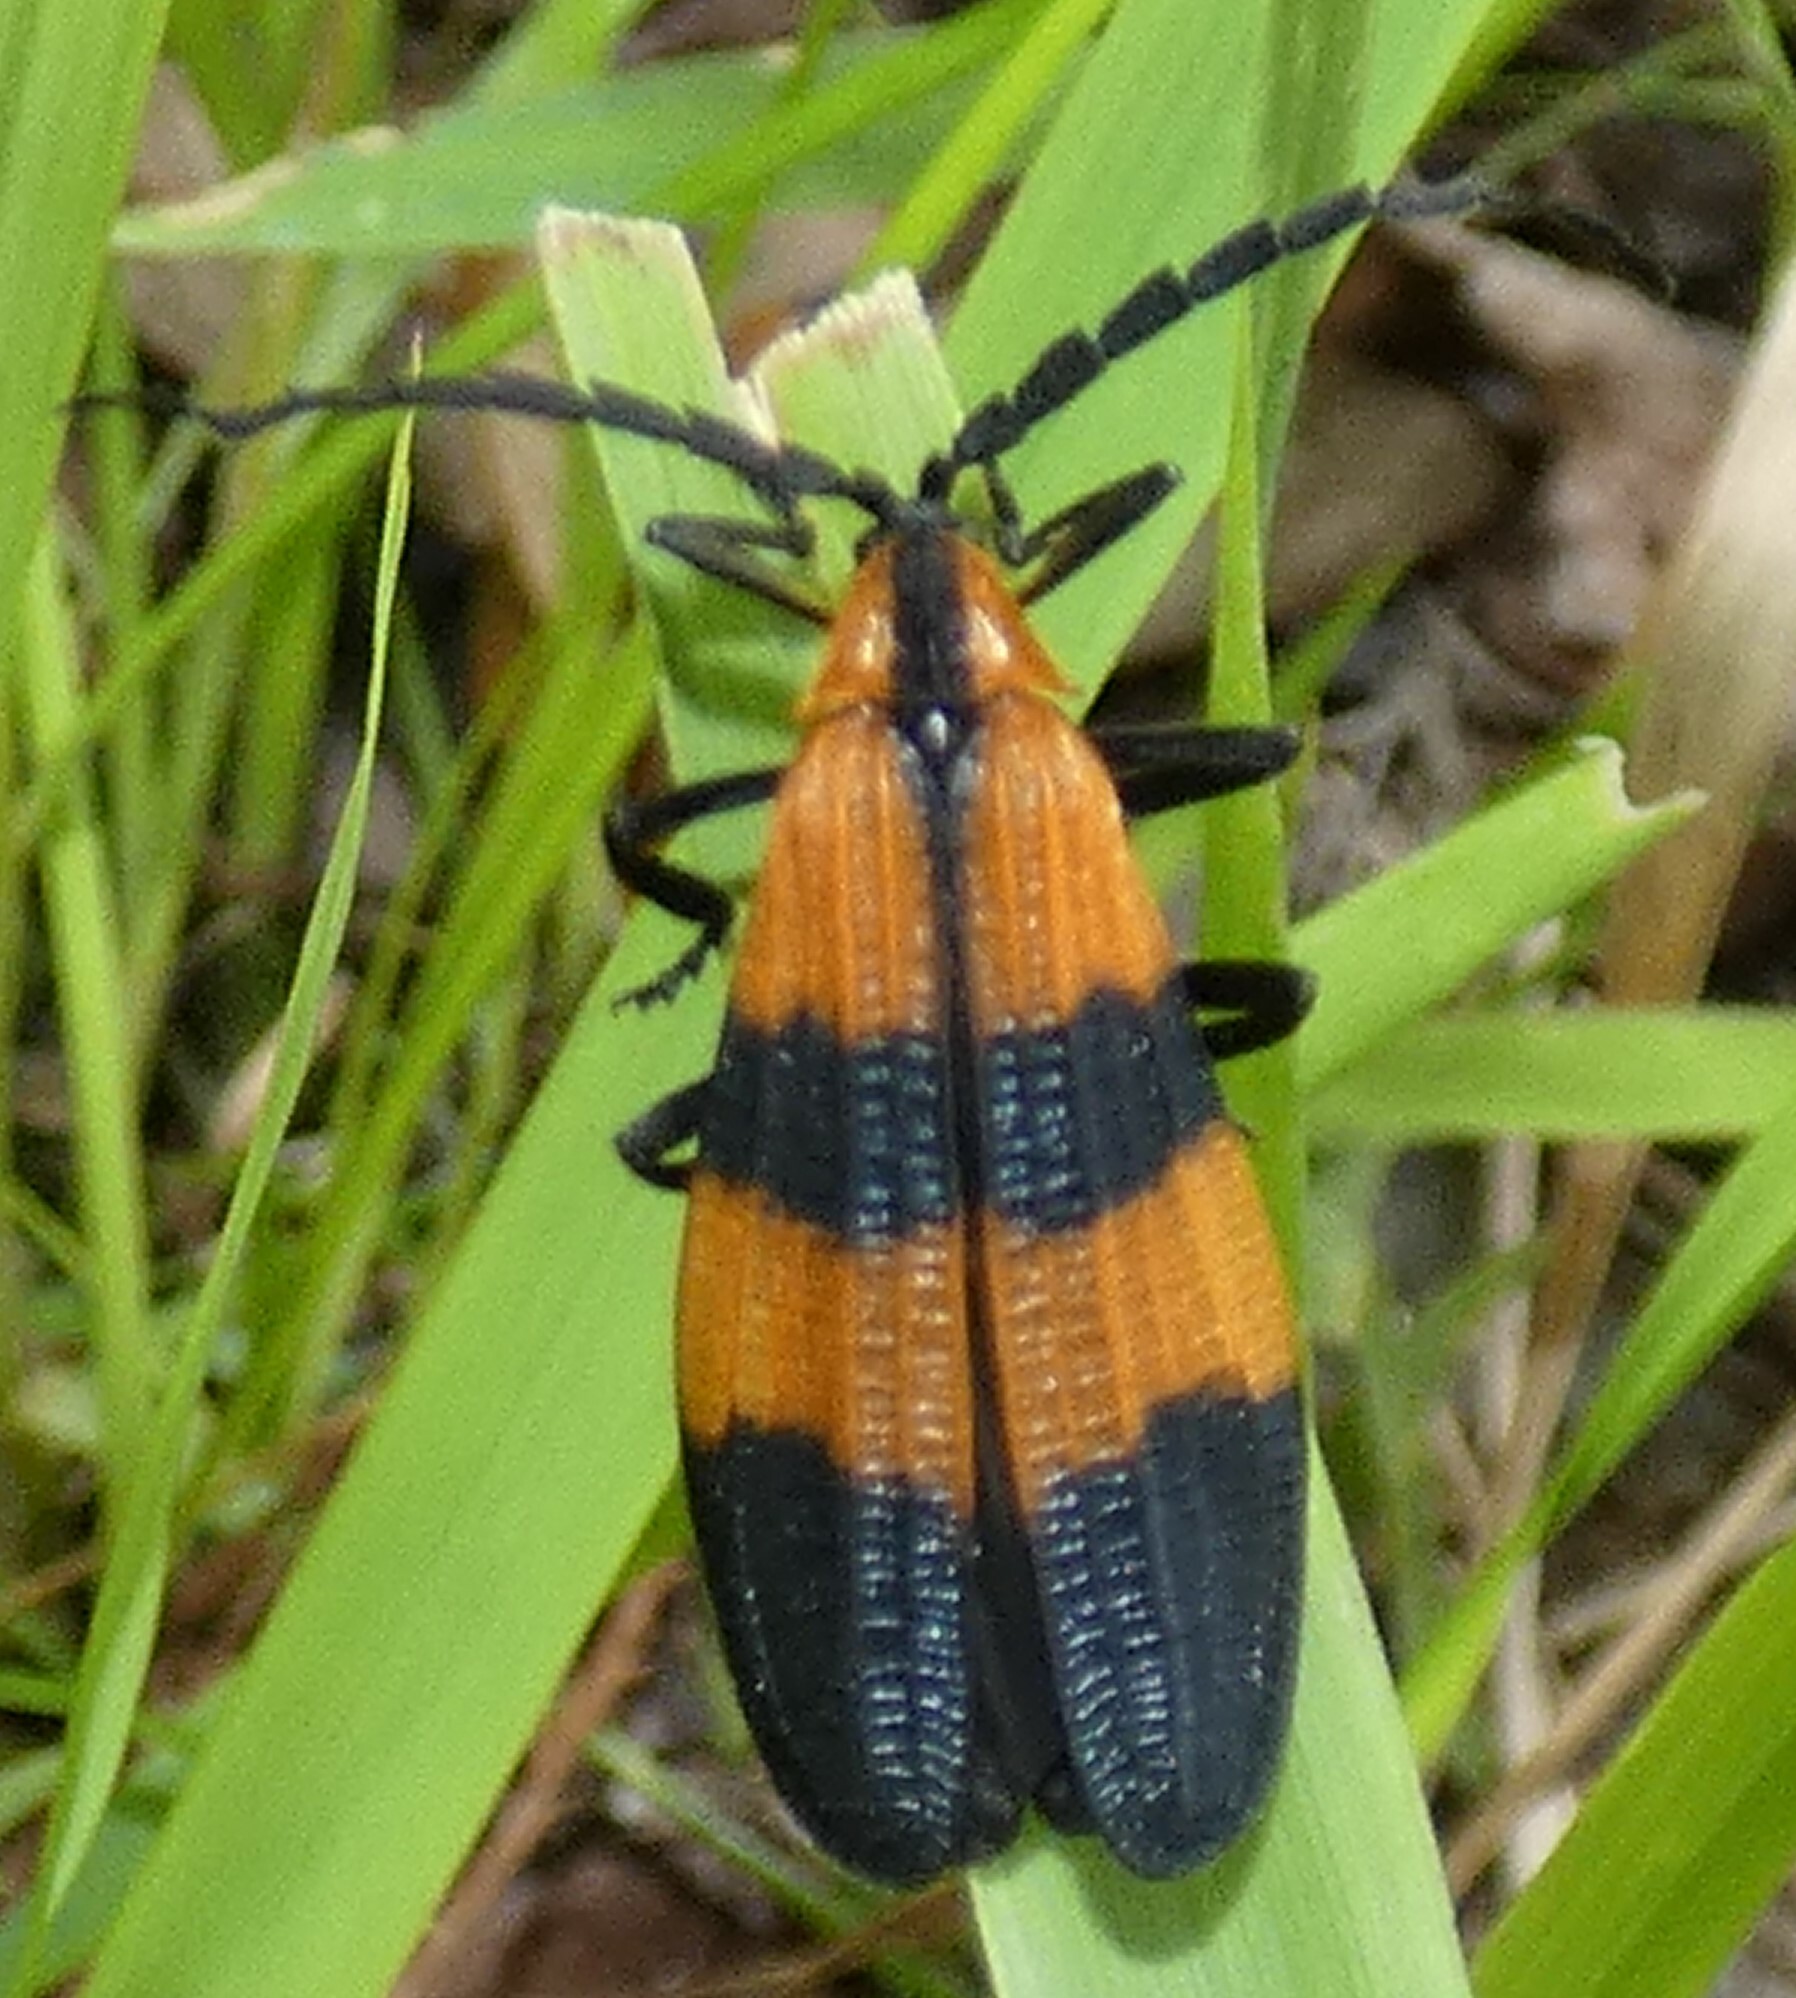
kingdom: Animalia
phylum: Arthropoda
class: Insecta
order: Coleoptera
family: Lycidae
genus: Calopteron
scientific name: Calopteron discrepans
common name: Banded net-winged beetle
